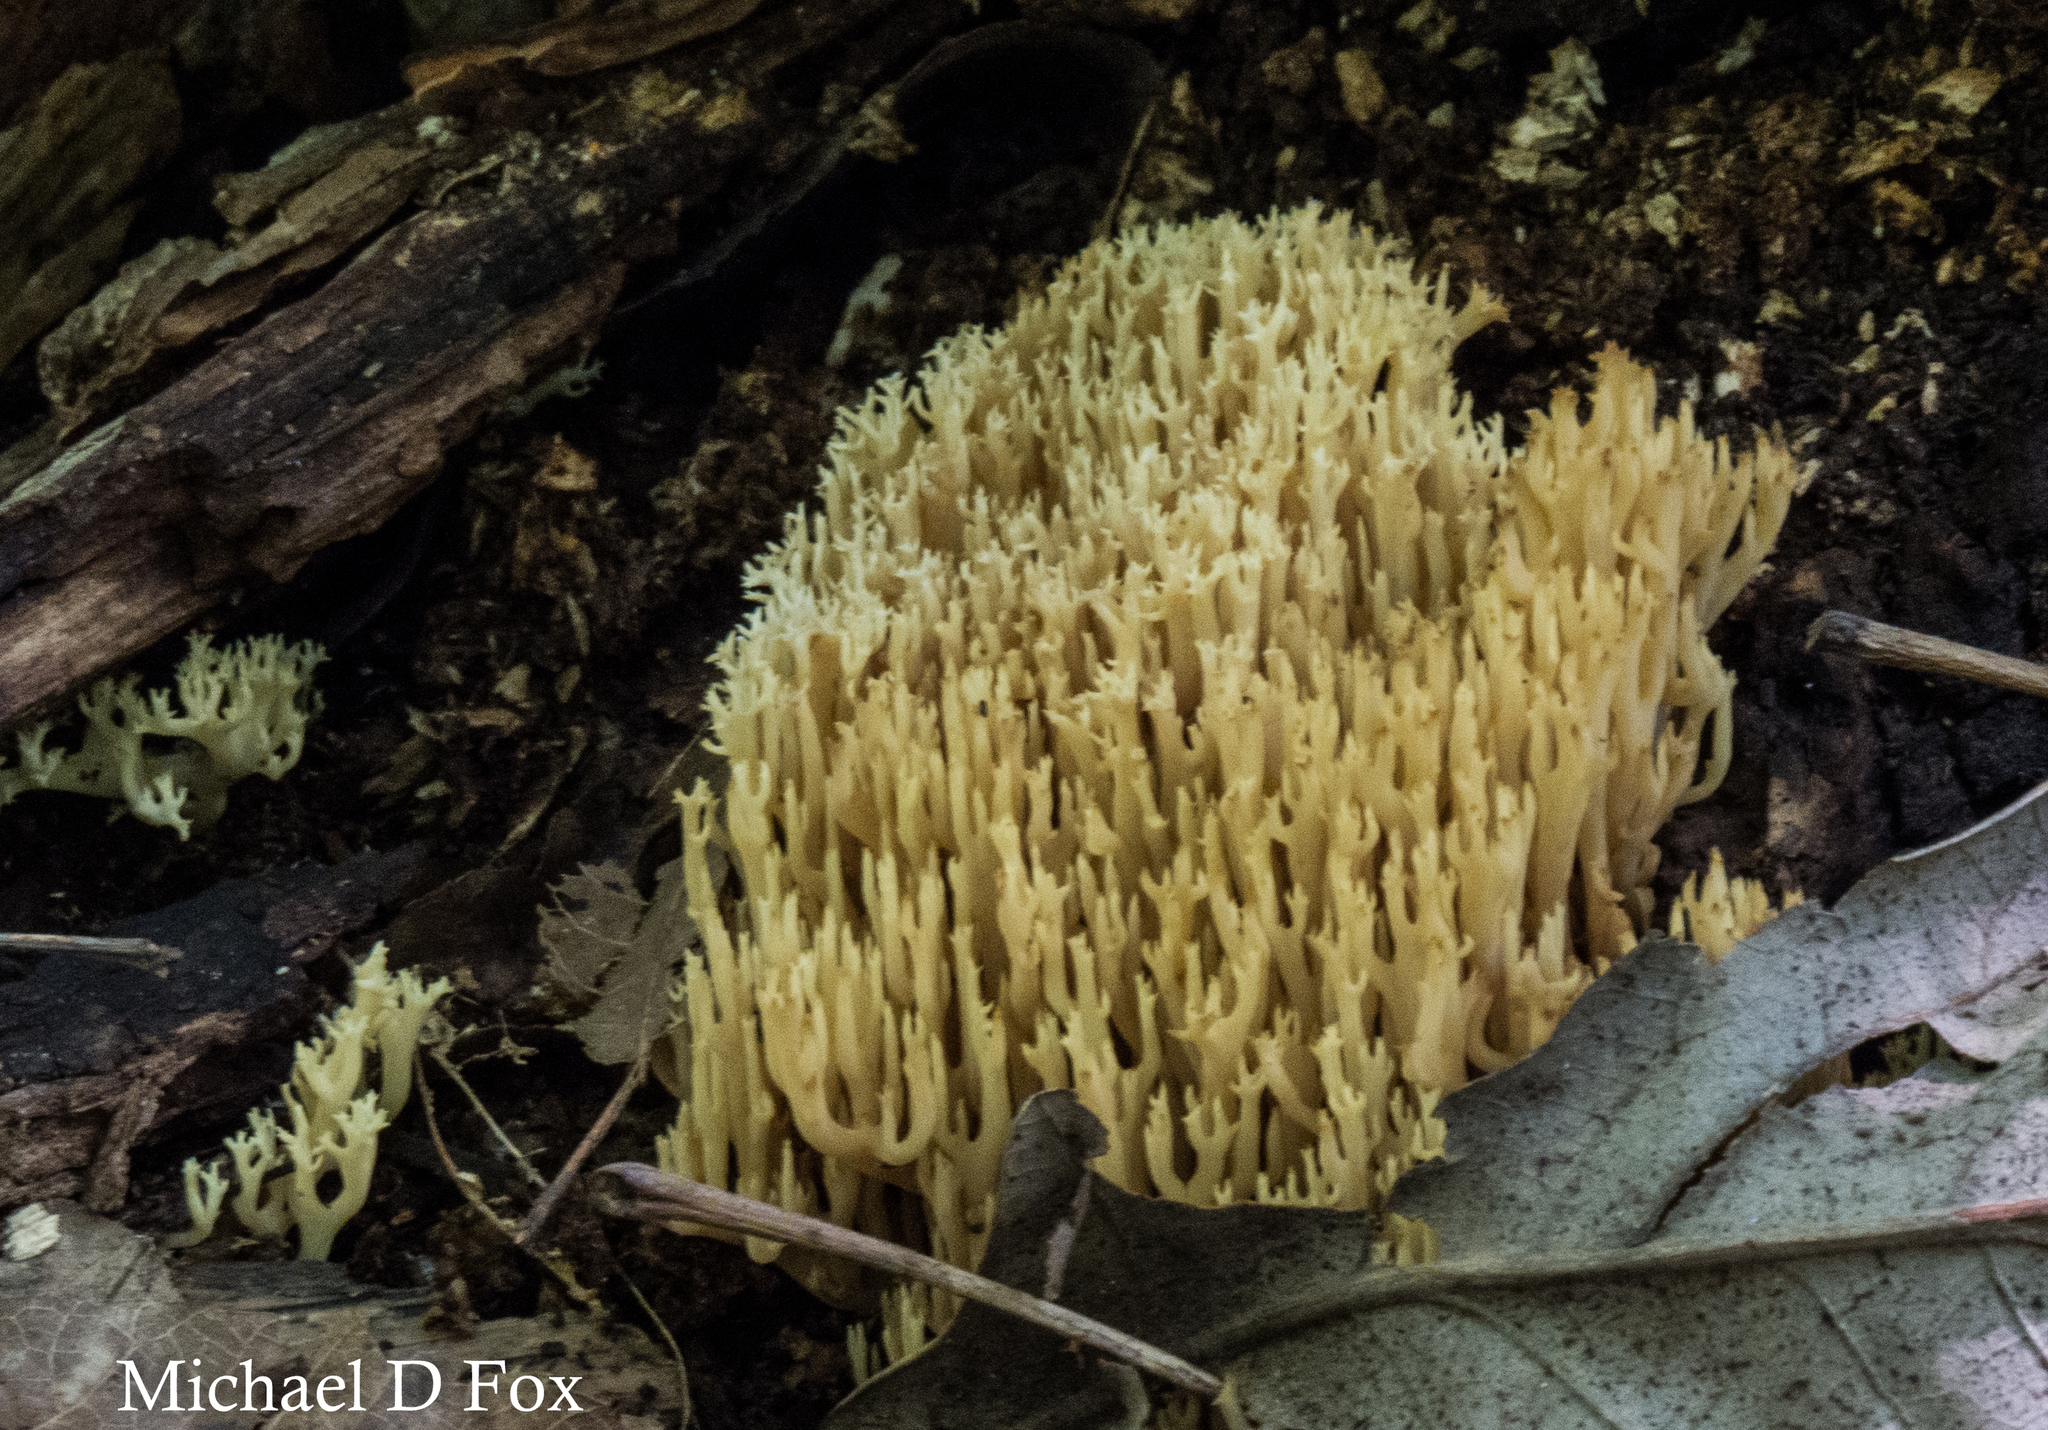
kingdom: Fungi
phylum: Basidiomycota
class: Agaricomycetes
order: Russulales
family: Auriscalpiaceae
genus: Artomyces
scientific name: Artomyces pyxidatus
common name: Crown-tipped coral fungus
